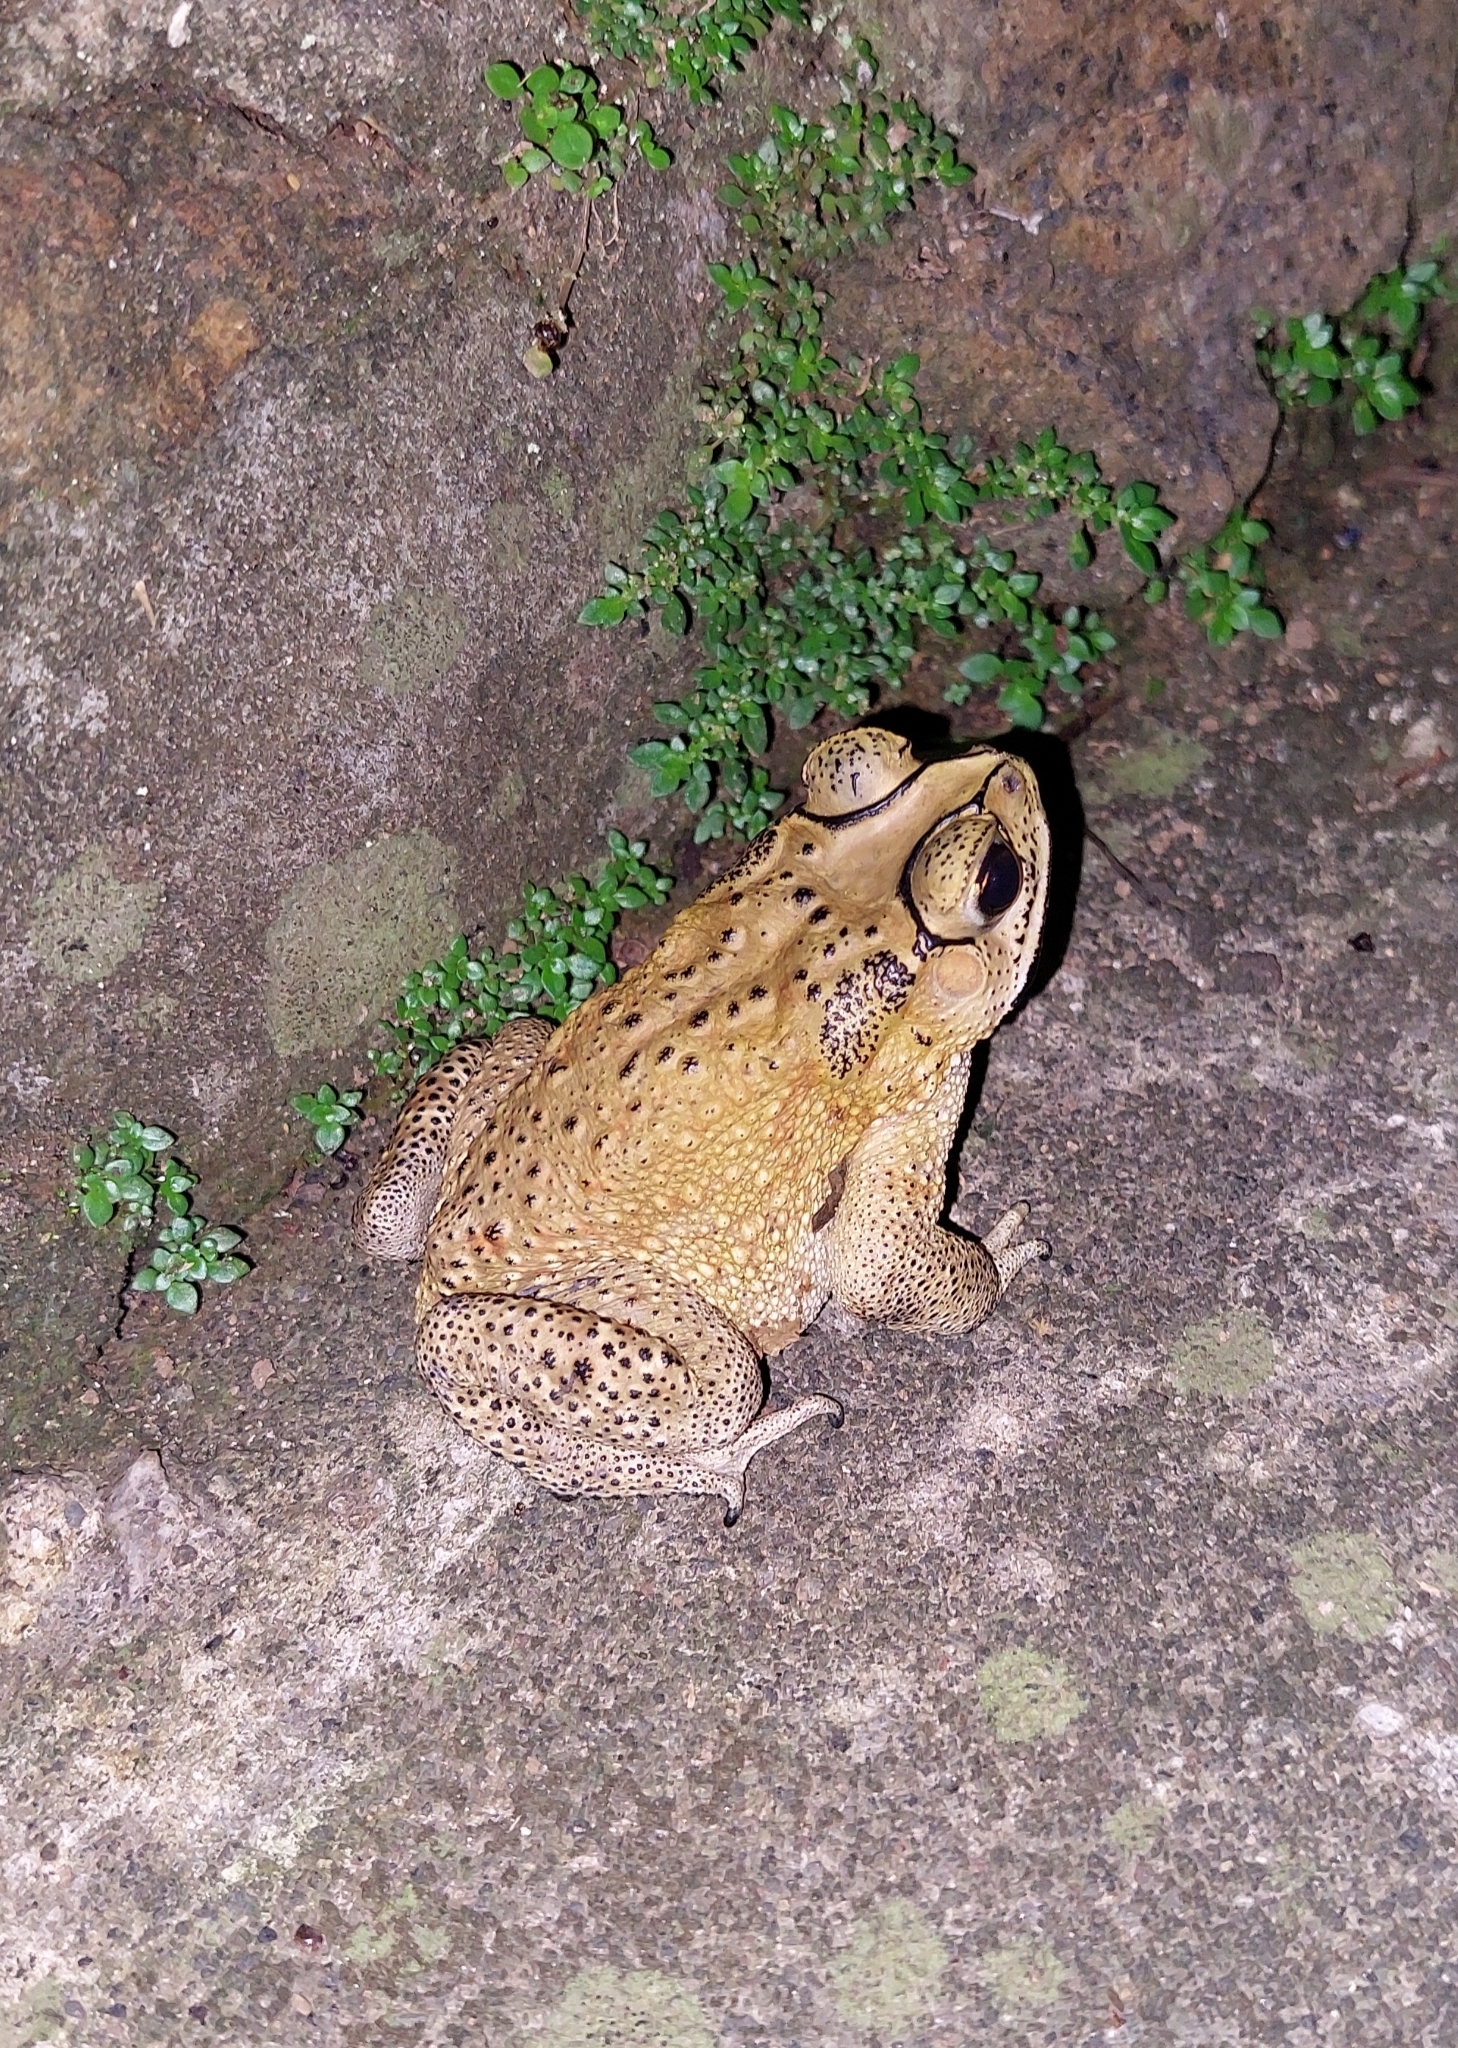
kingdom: Animalia
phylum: Chordata
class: Amphibia
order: Anura
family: Bufonidae
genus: Duttaphrynus
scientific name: Duttaphrynus melanostictus
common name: Common sunda toad
